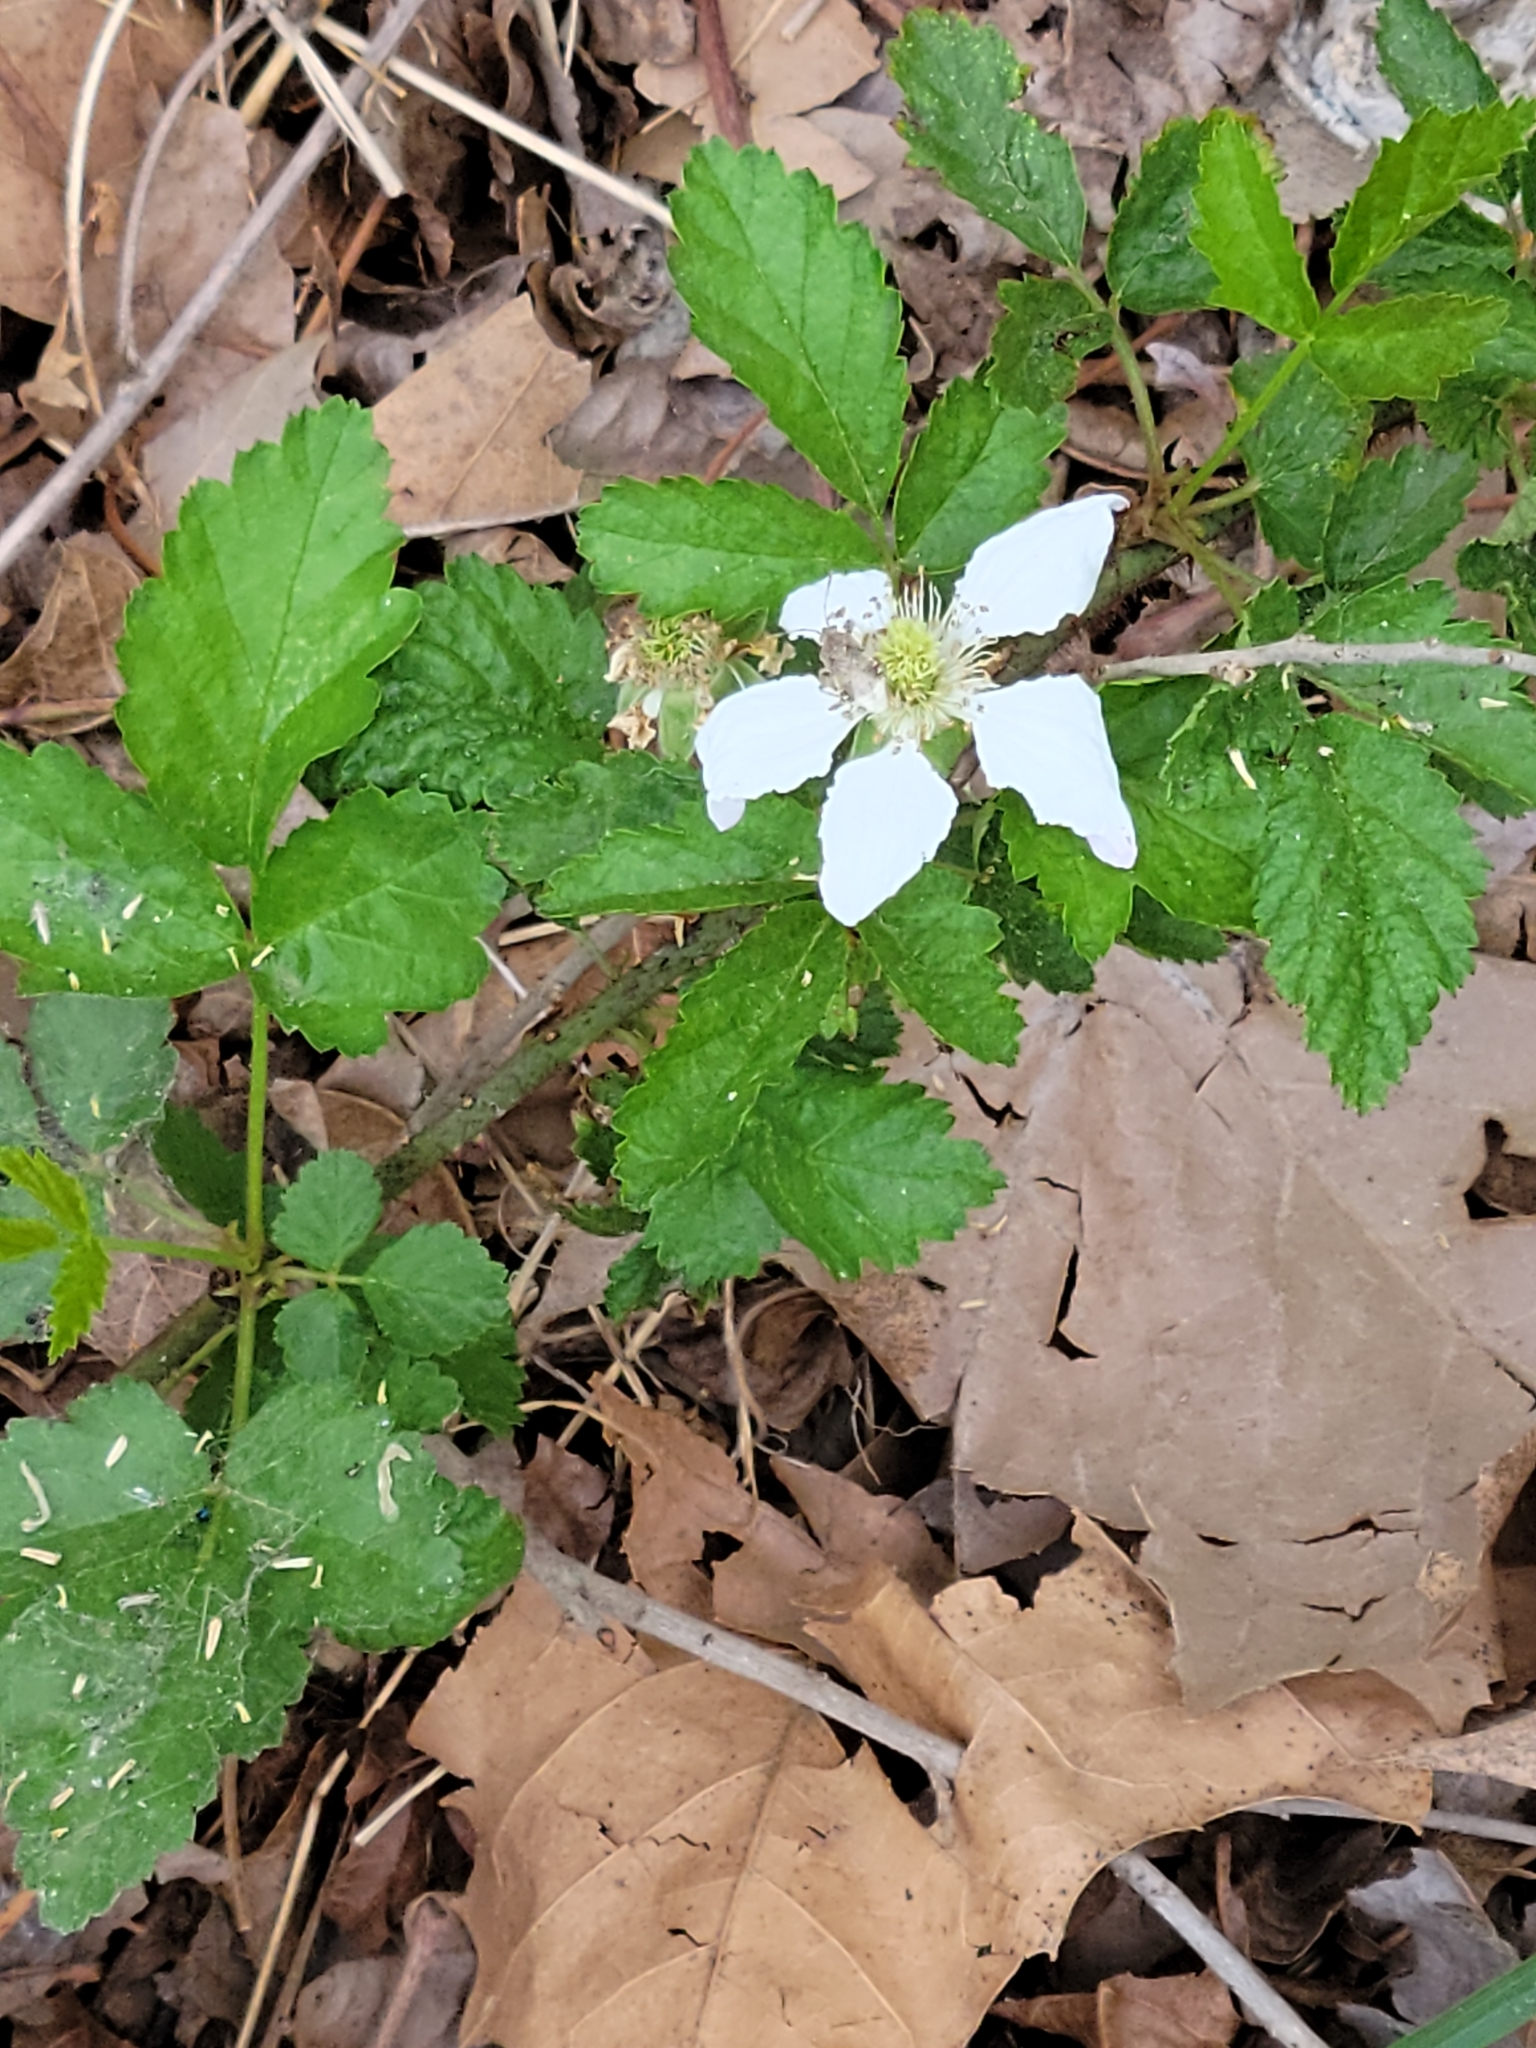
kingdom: Plantae
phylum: Tracheophyta
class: Magnoliopsida
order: Rosales
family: Rosaceae
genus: Rubus
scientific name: Rubus trivialis
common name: Southern dewberry
